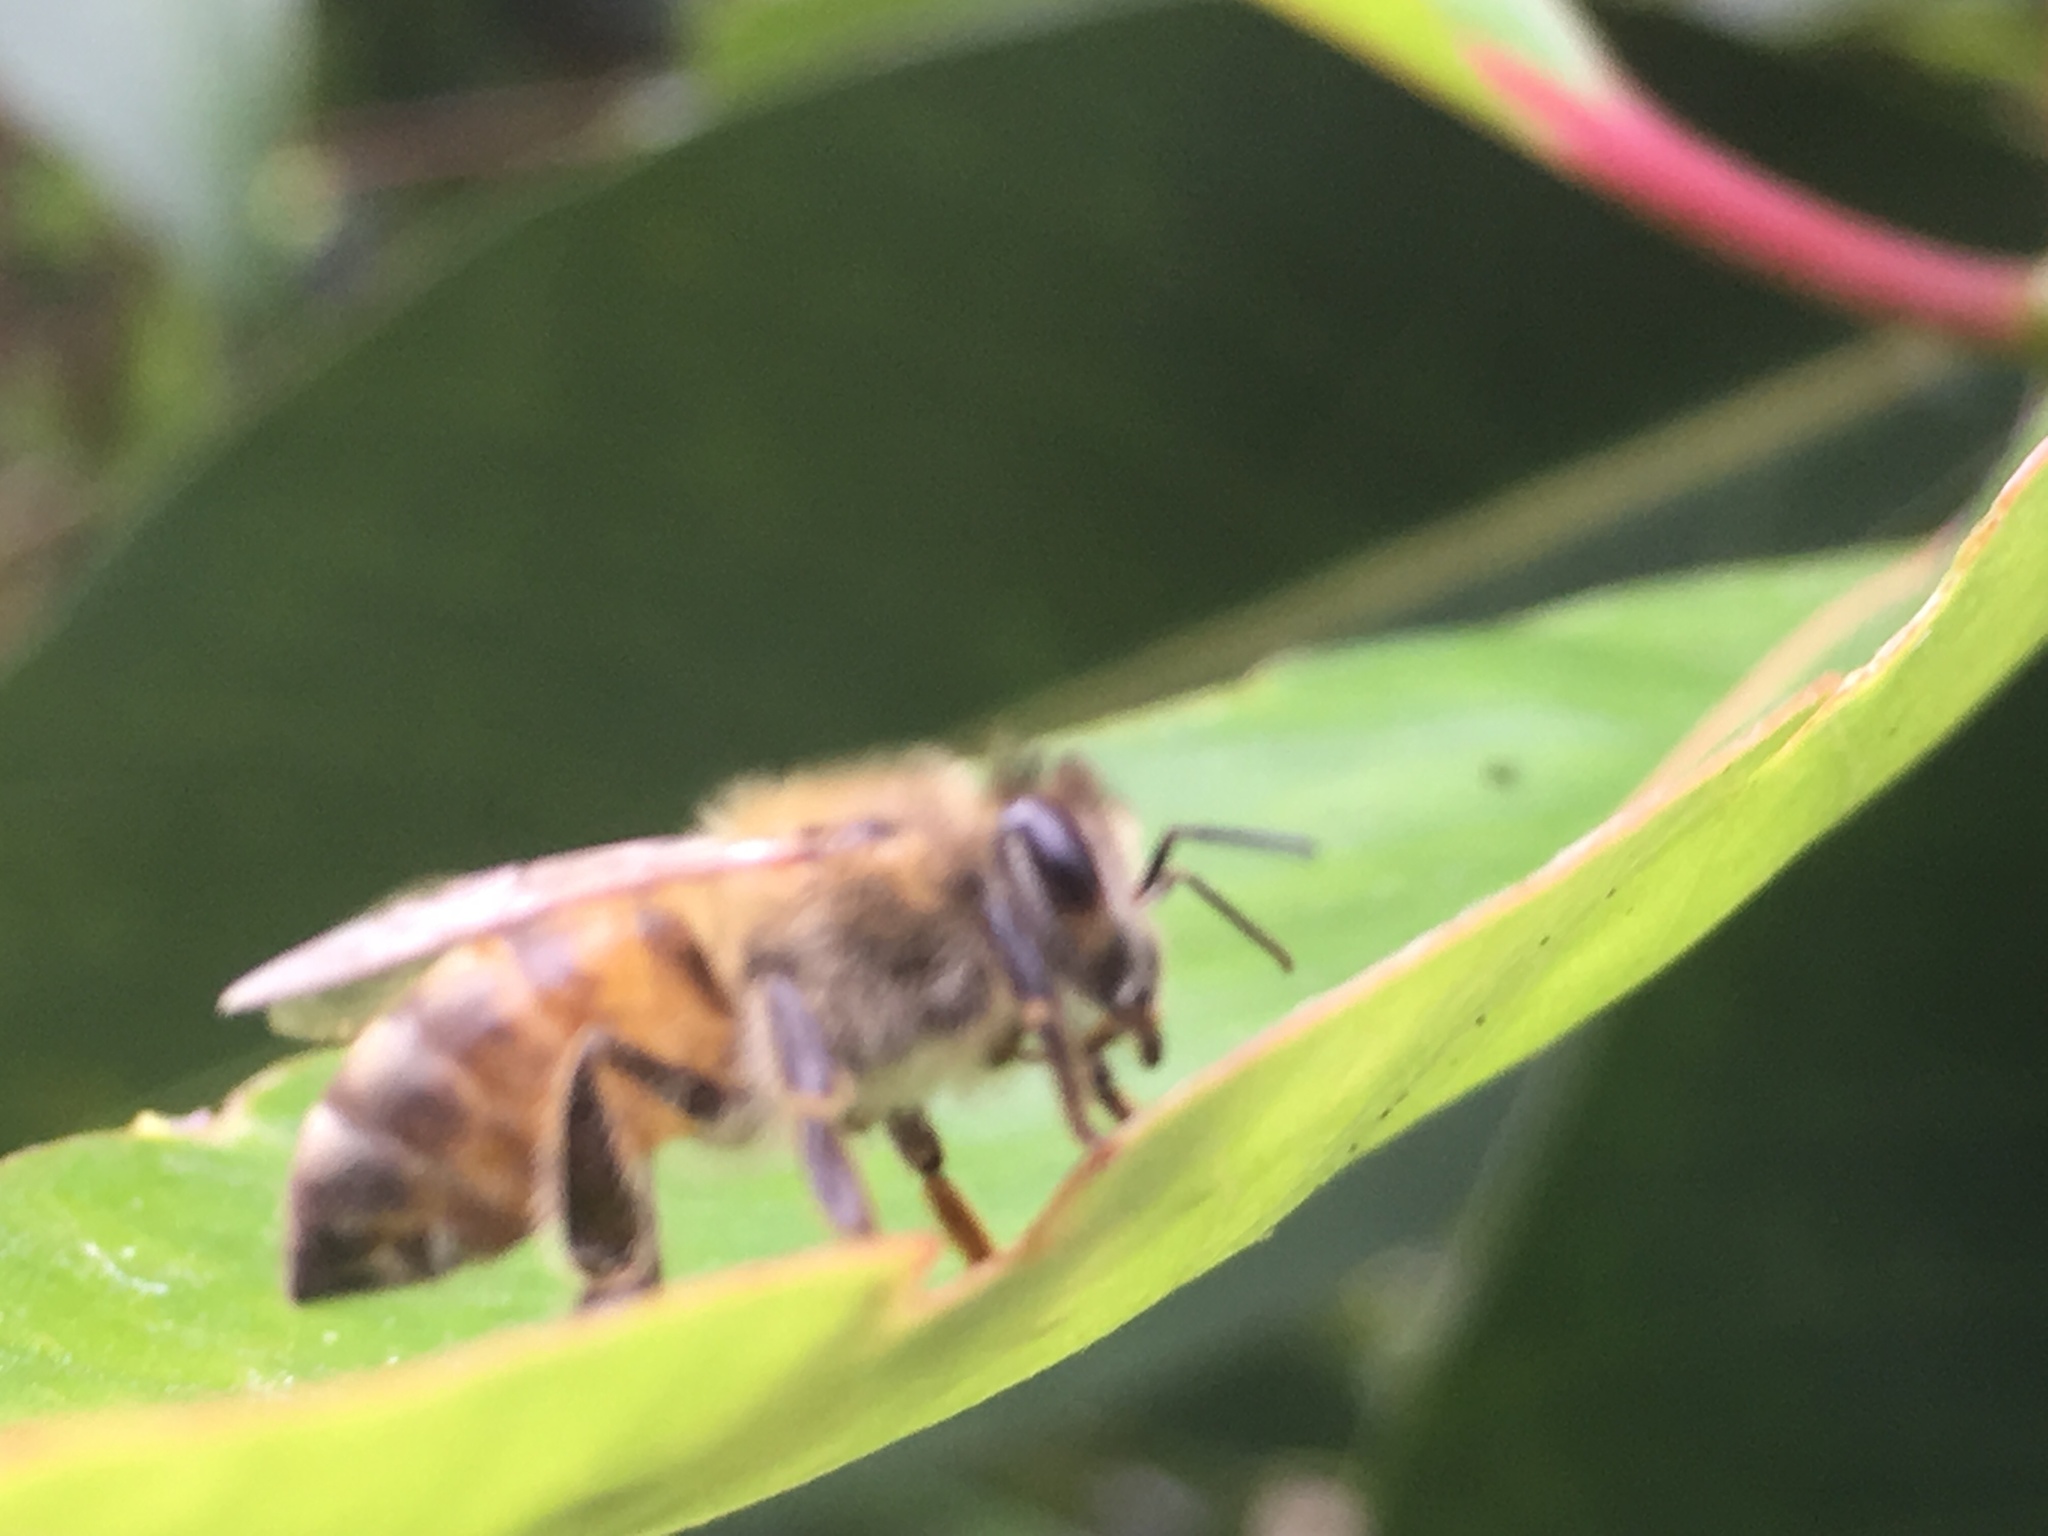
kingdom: Animalia
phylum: Arthropoda
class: Insecta
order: Hymenoptera
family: Apidae
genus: Apis
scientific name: Apis mellifera
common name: Honey bee
